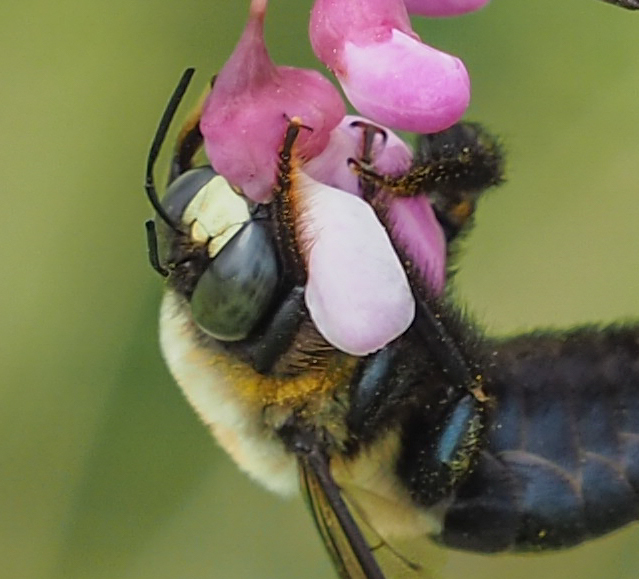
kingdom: Animalia
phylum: Arthropoda
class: Insecta
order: Hymenoptera
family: Apidae
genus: Xylocopa
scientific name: Xylocopa virginica
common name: Carpenter bee
